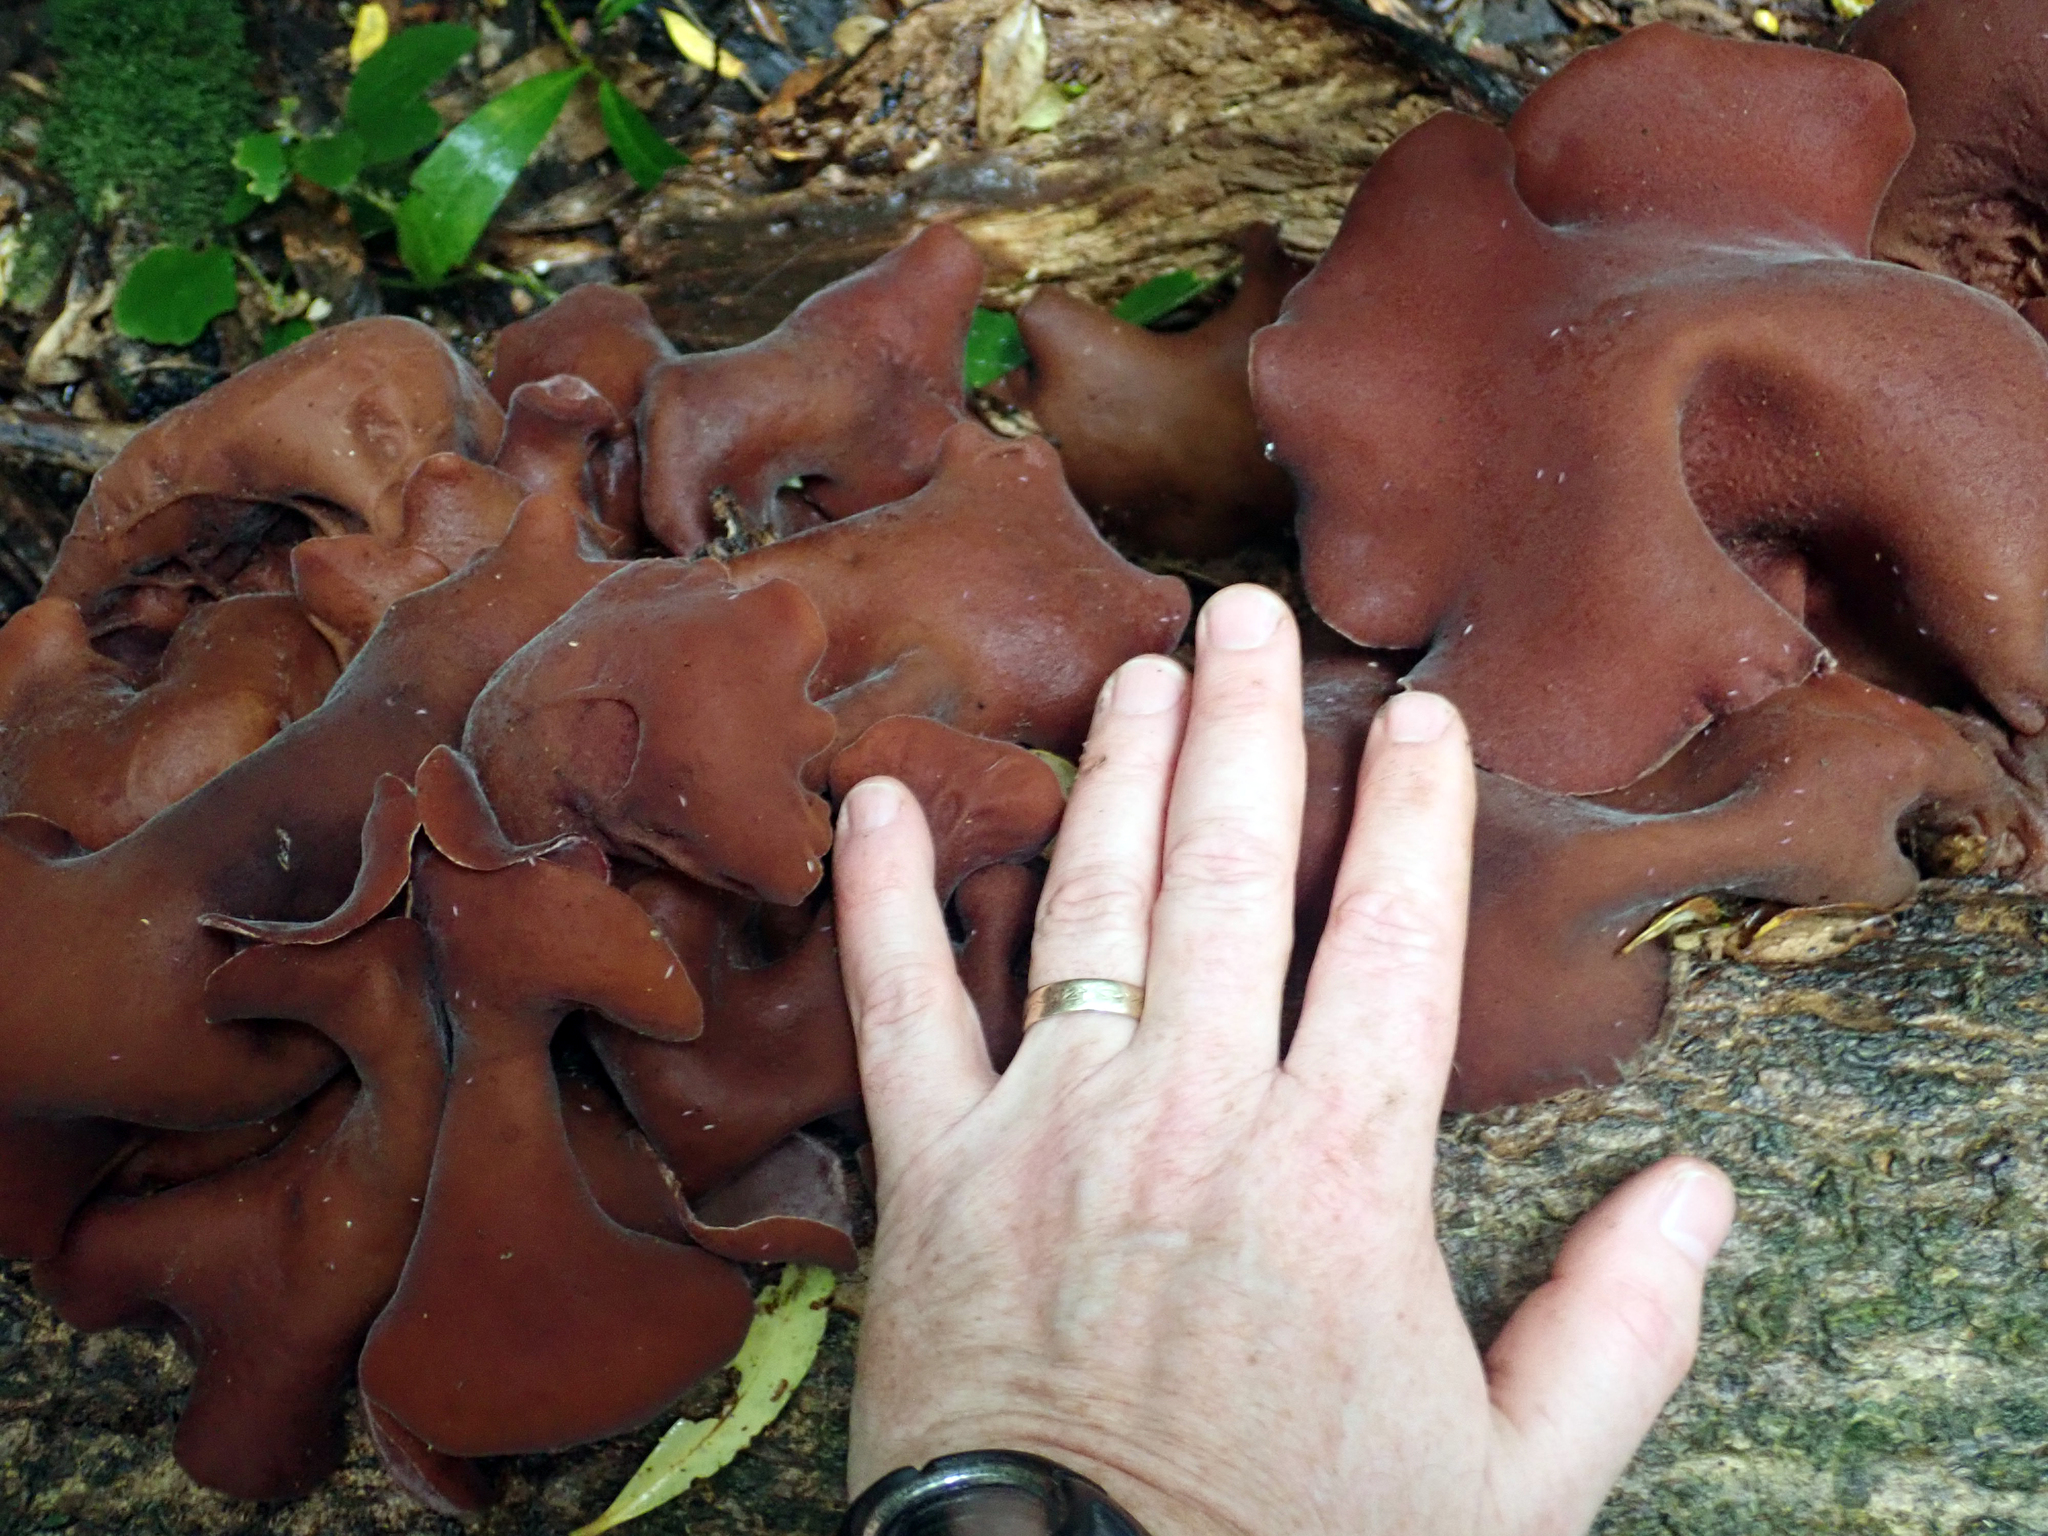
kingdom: Fungi
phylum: Basidiomycota
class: Agaricomycetes
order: Auriculariales
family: Auriculariaceae
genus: Auricularia
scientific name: Auricularia cornea
